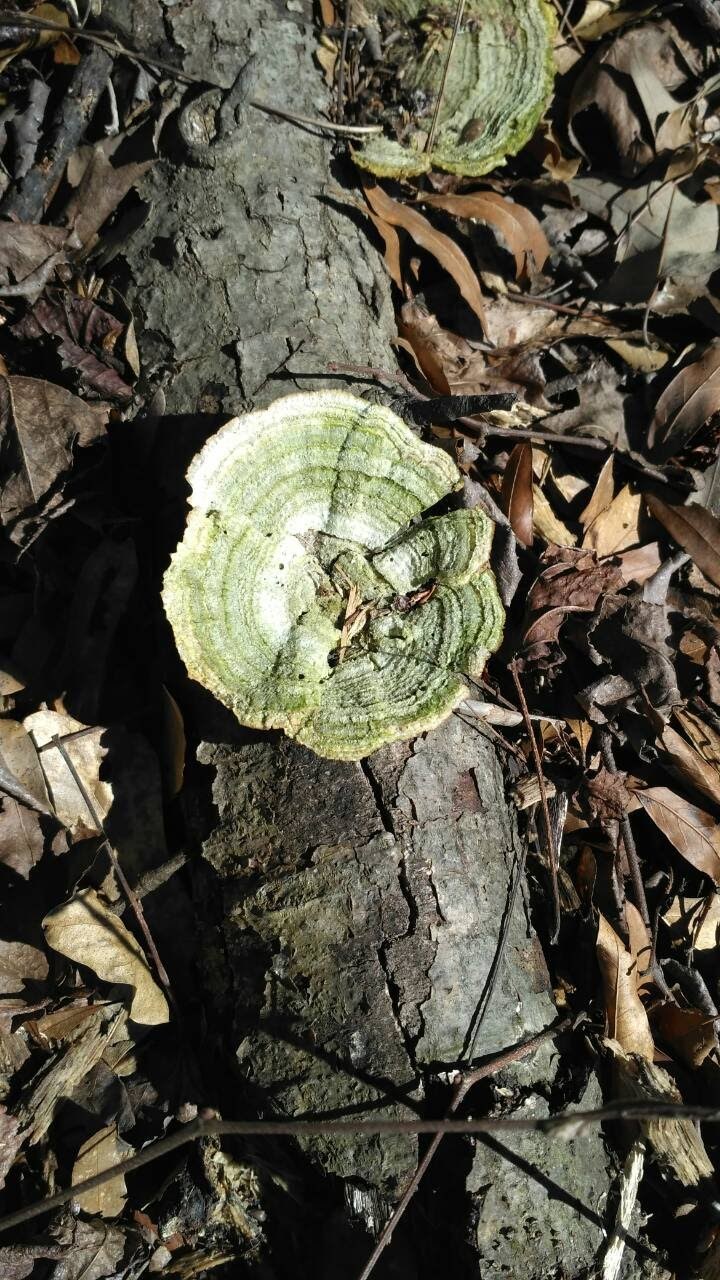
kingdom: Fungi
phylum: Basidiomycota
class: Agaricomycetes
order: Polyporales
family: Polyporaceae
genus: Lenzites
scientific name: Lenzites betulinus
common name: Birch mazegill
